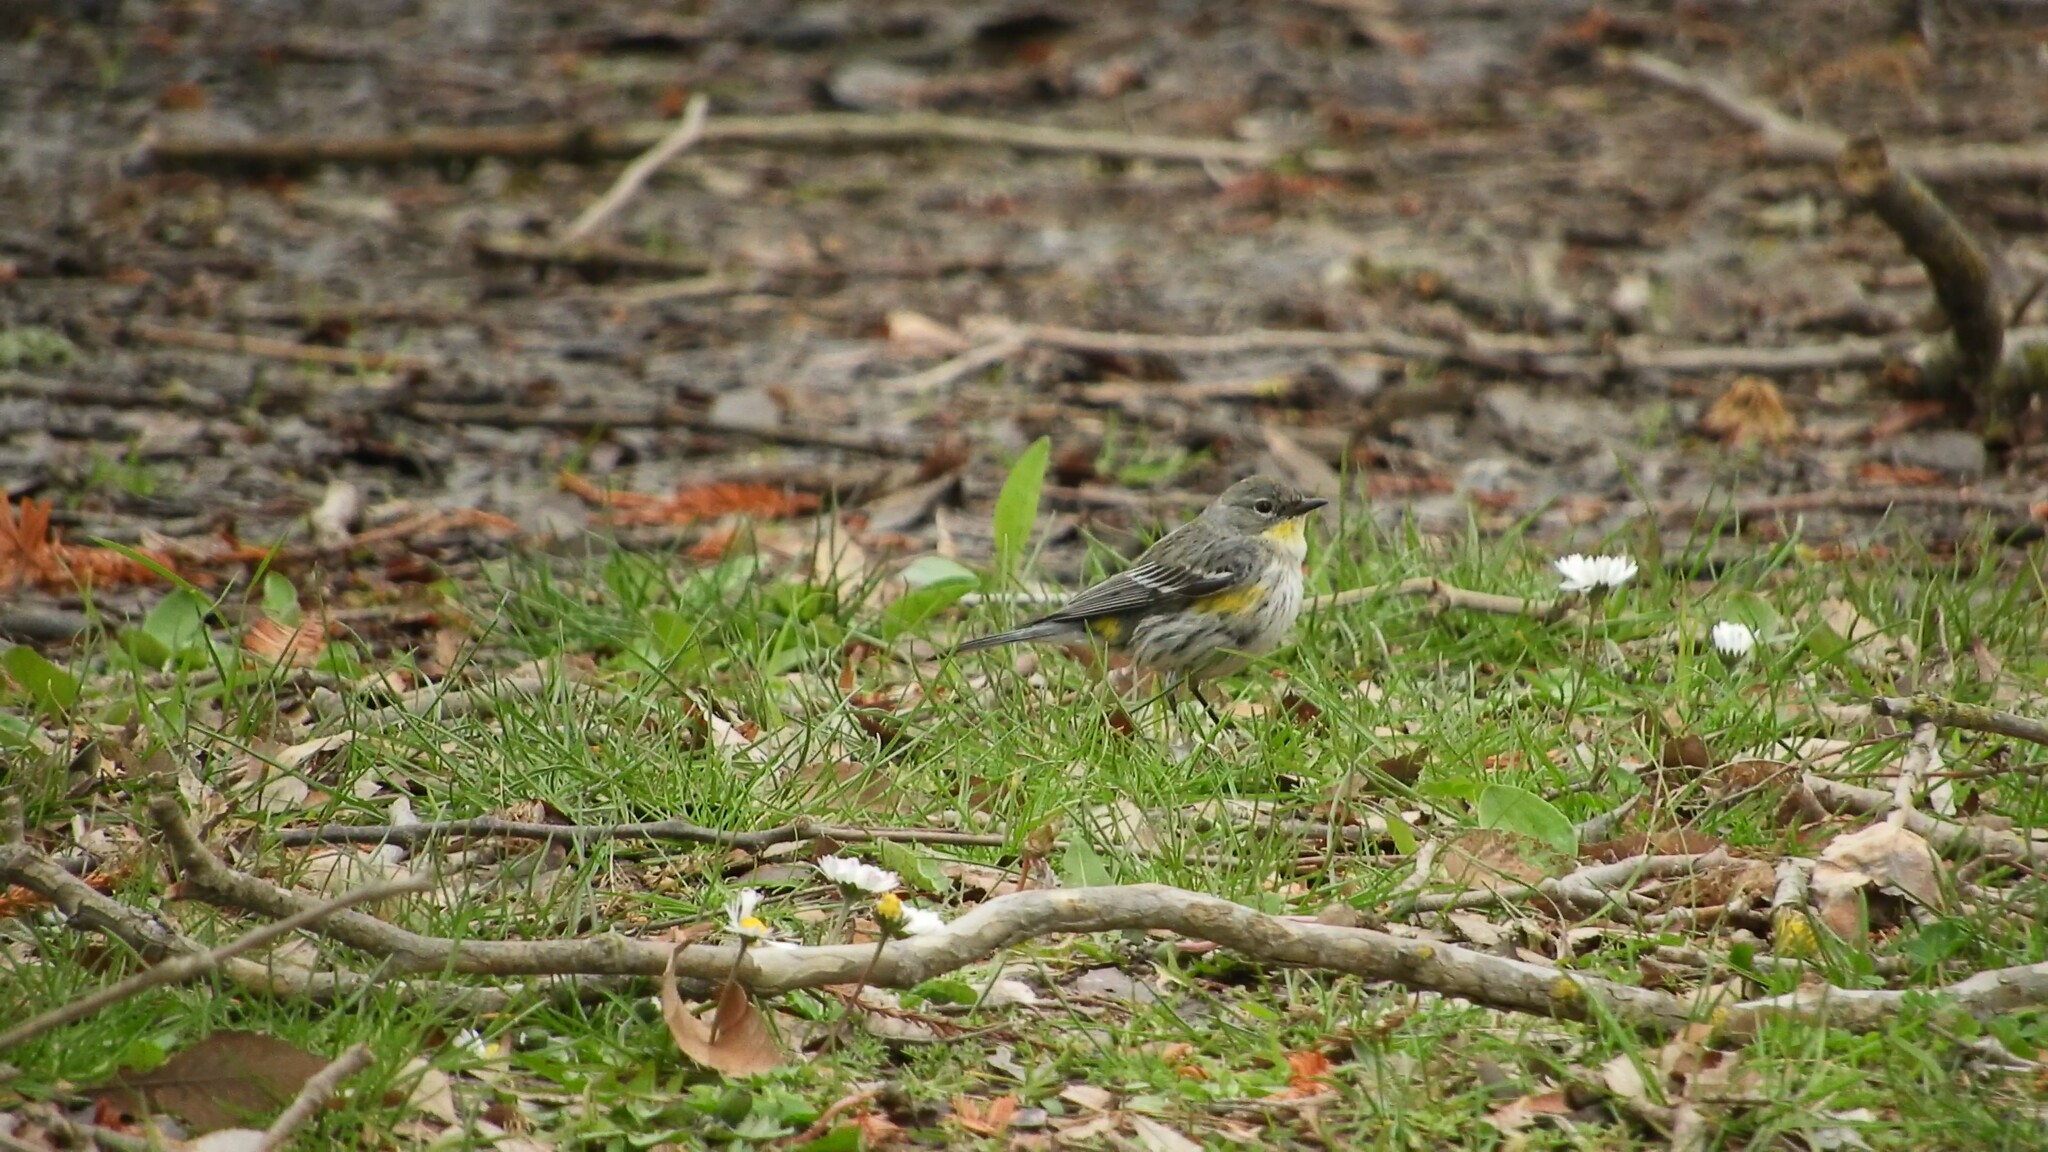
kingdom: Animalia
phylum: Chordata
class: Aves
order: Passeriformes
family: Parulidae
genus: Setophaga
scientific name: Setophaga auduboni
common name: Audubon's warbler
